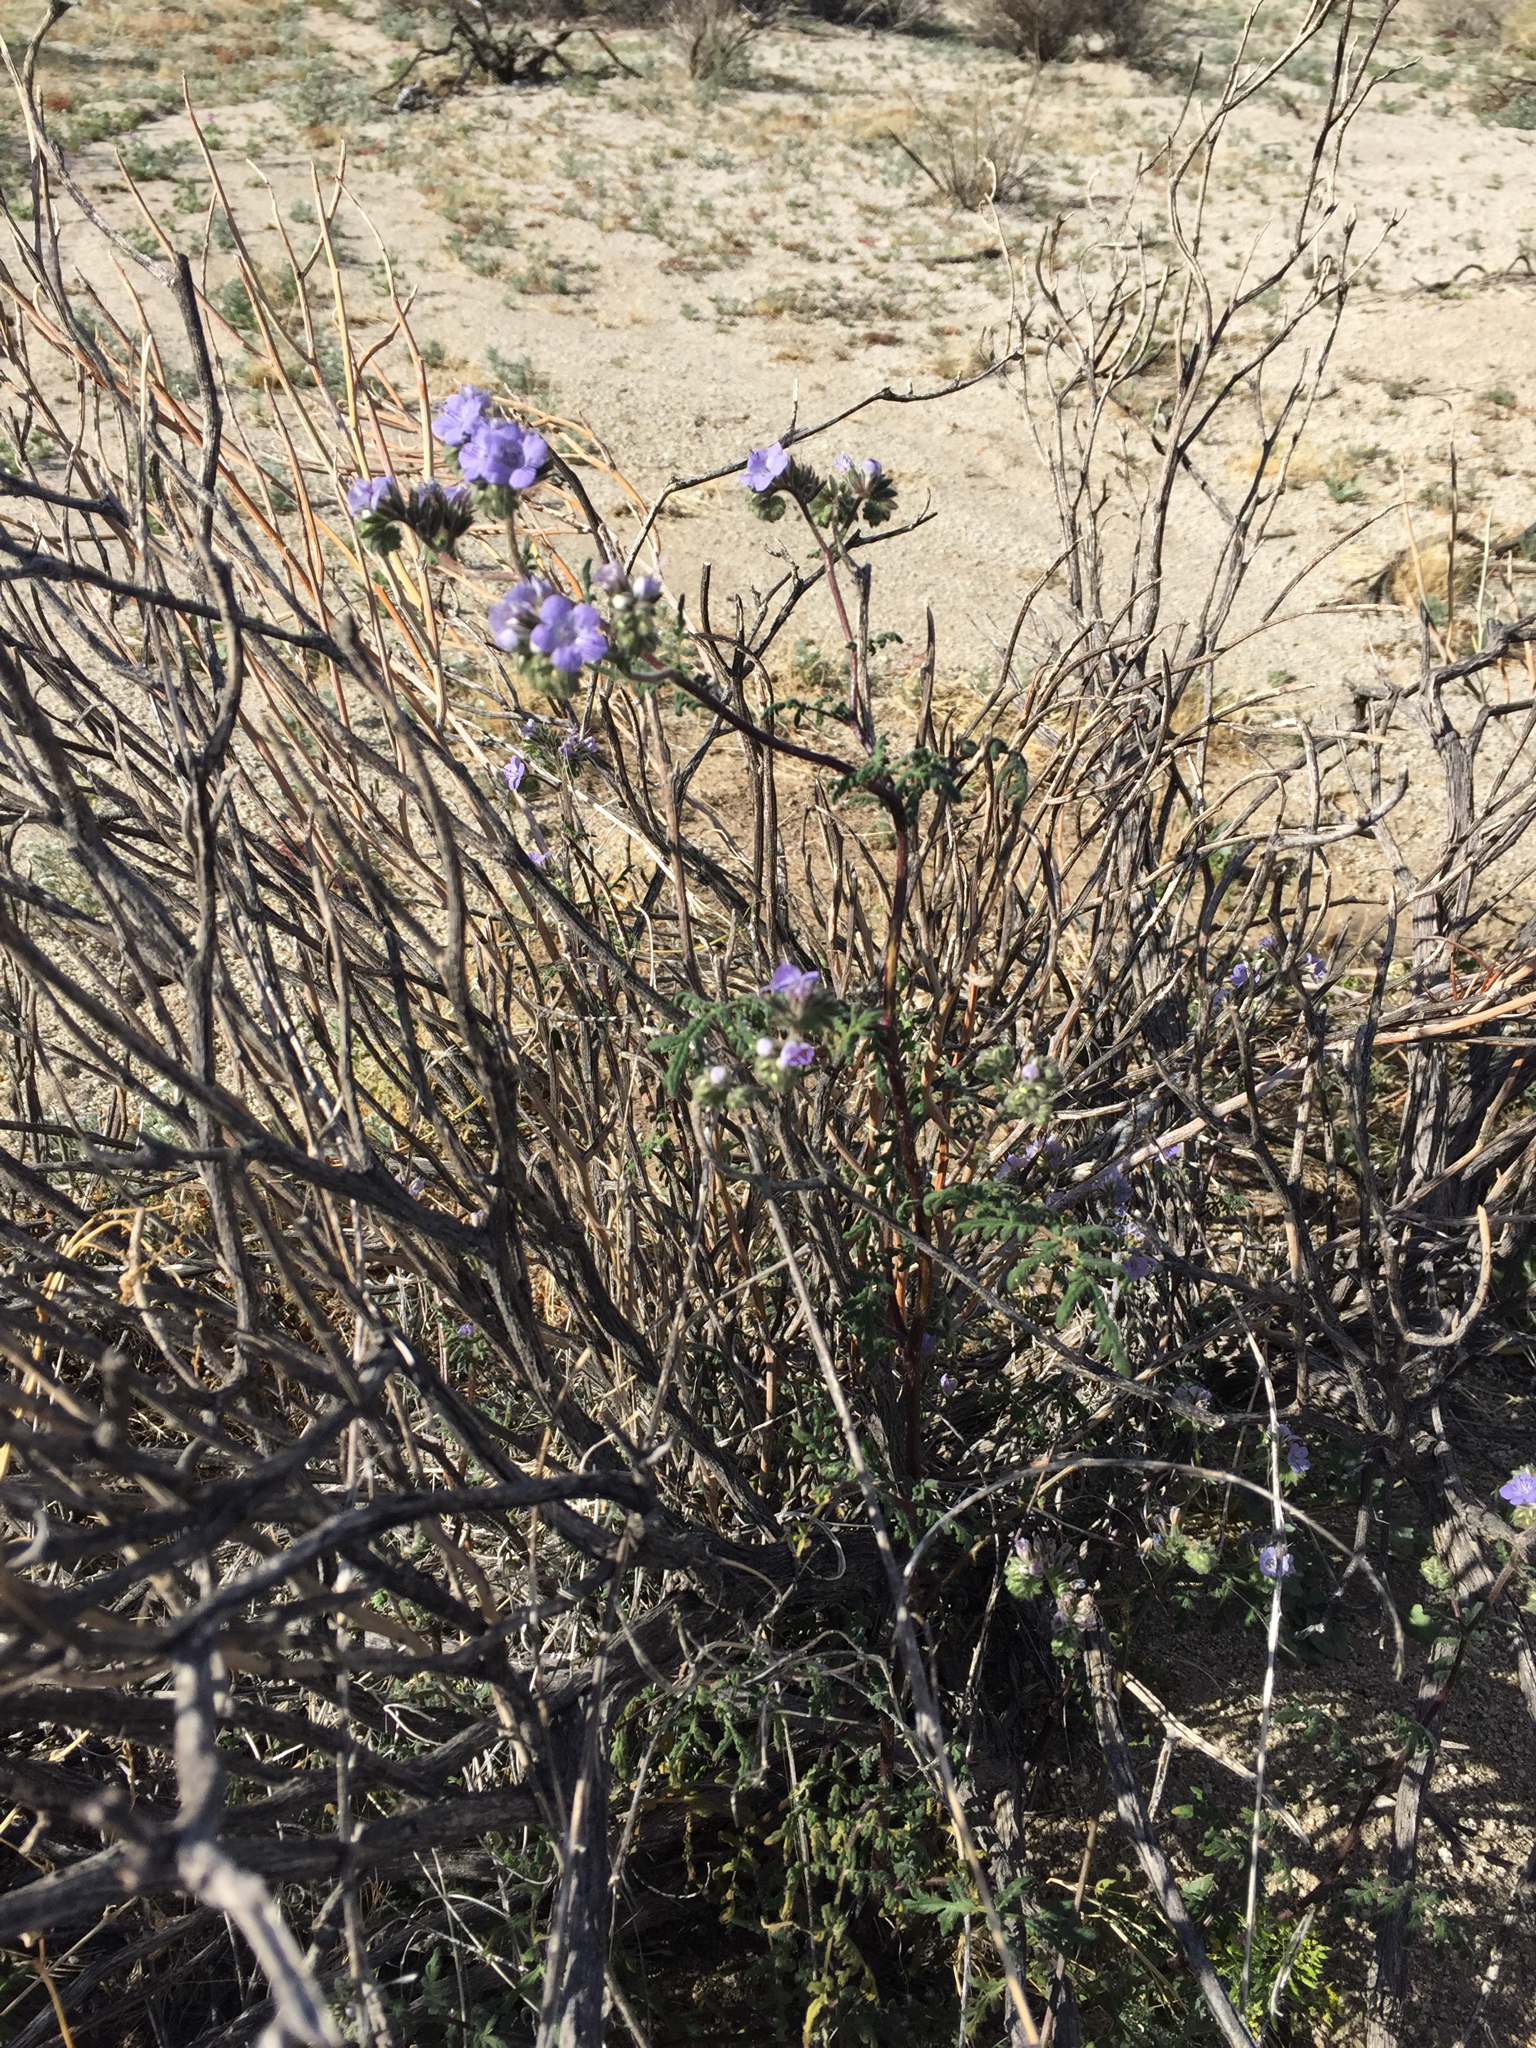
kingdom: Plantae
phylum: Tracheophyta
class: Magnoliopsida
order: Boraginales
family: Hydrophyllaceae
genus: Phacelia
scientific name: Phacelia distans
